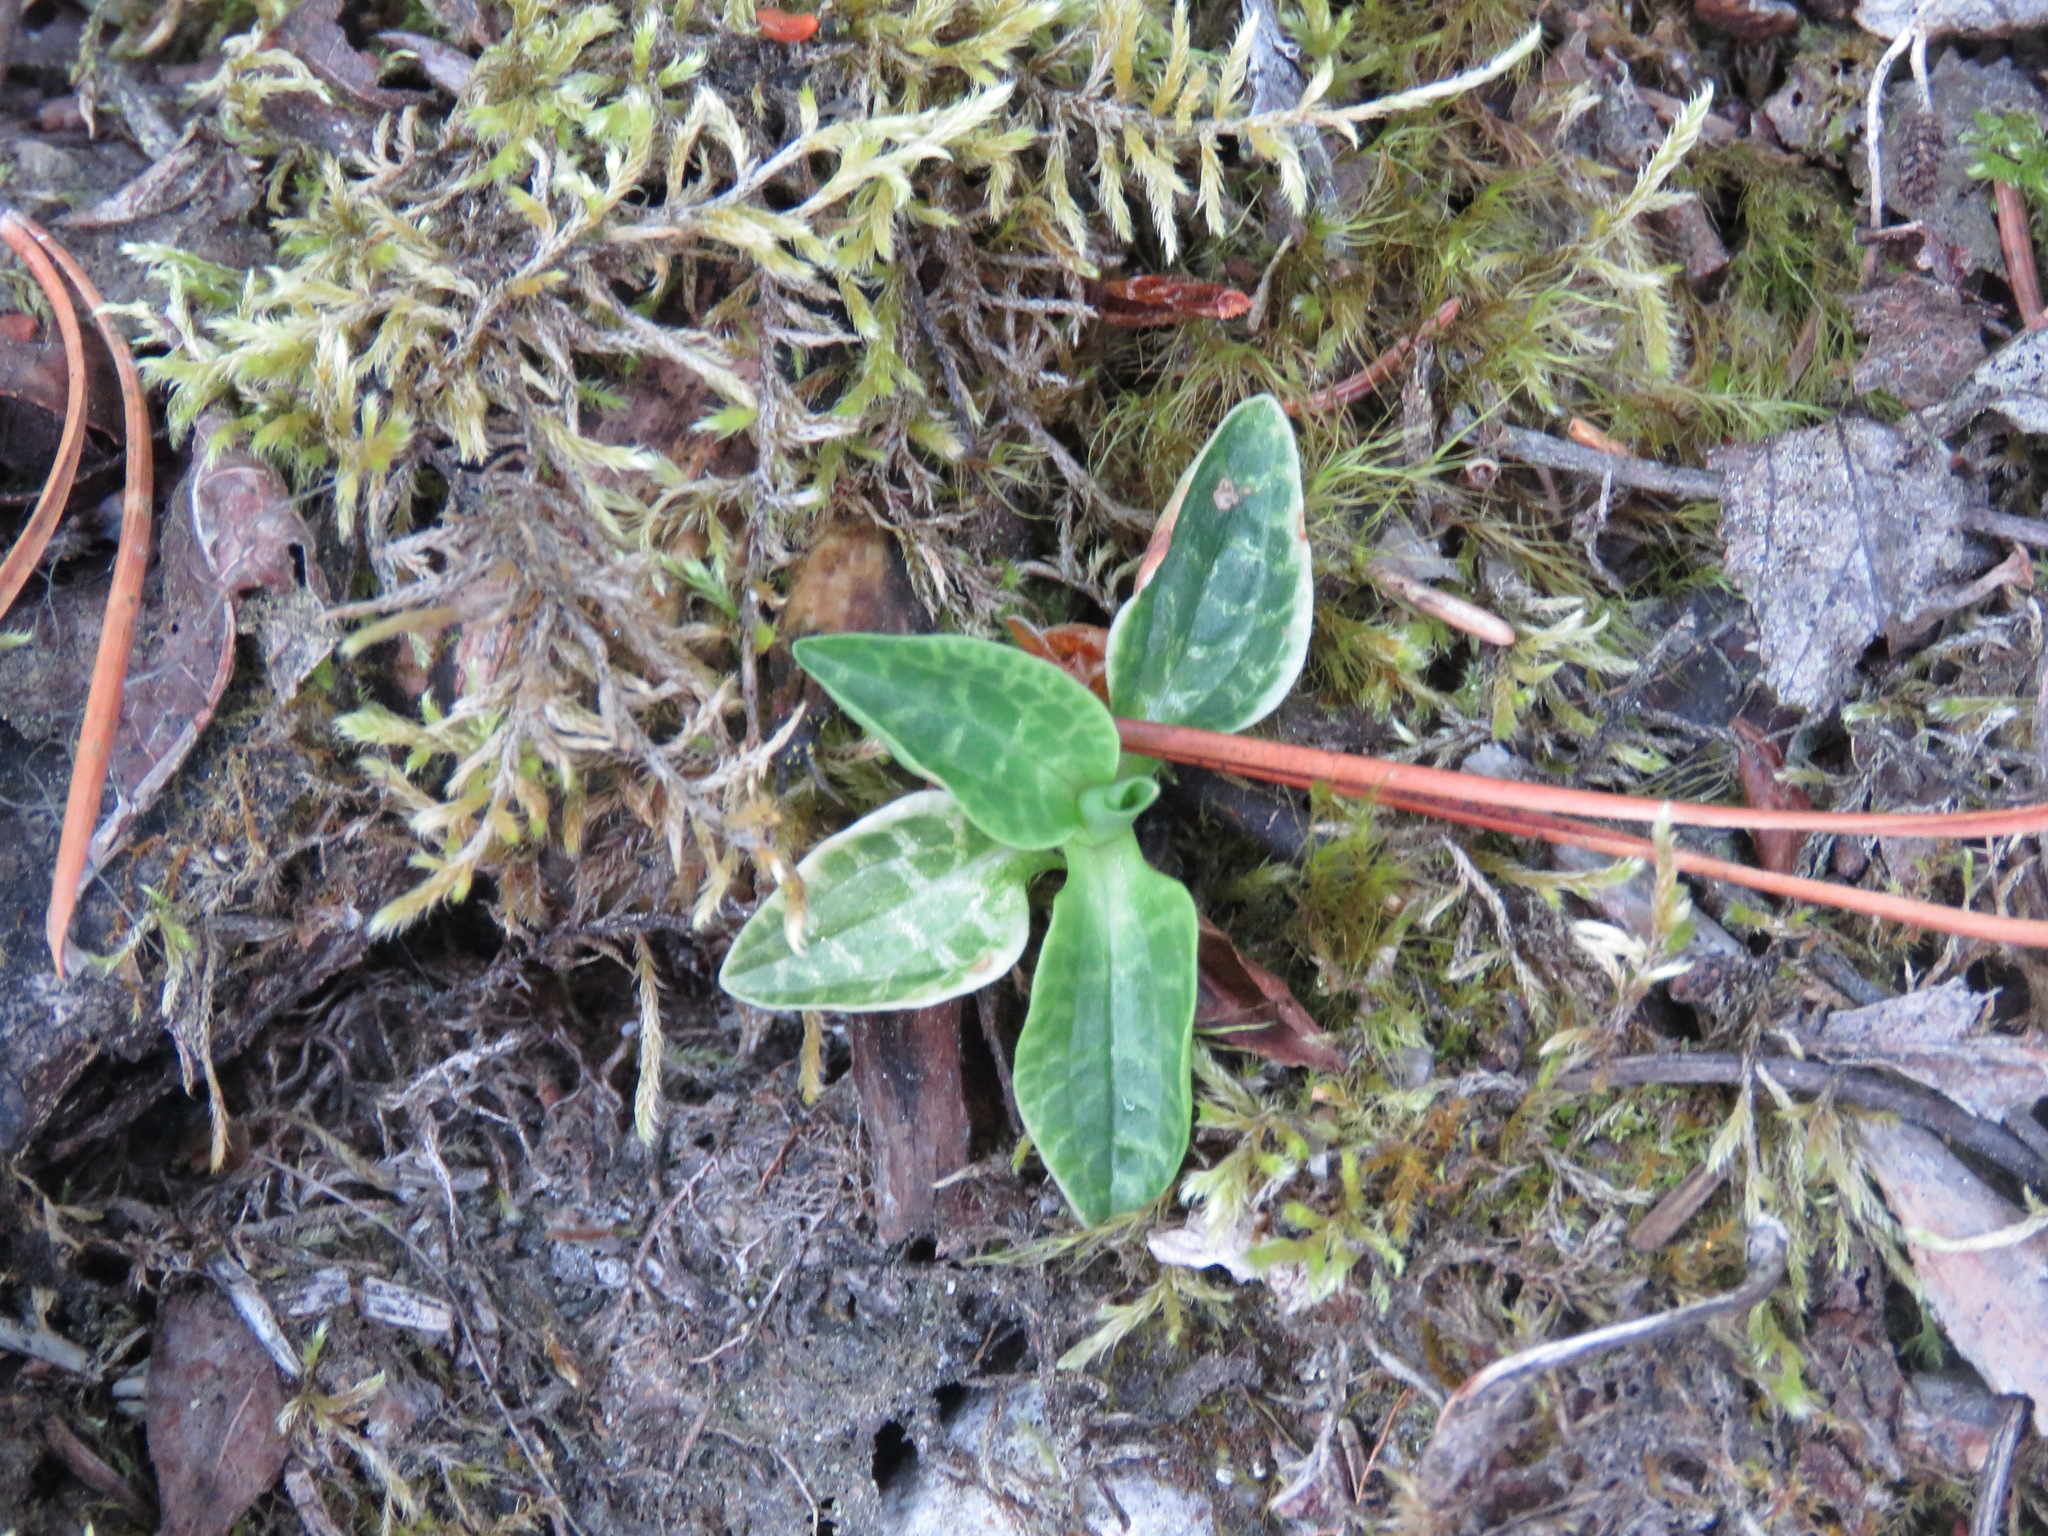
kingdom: Plantae
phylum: Tracheophyta
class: Liliopsida
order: Asparagales
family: Orchidaceae
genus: Goodyera
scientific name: Goodyera repens
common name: Creeping lady's-tresses
